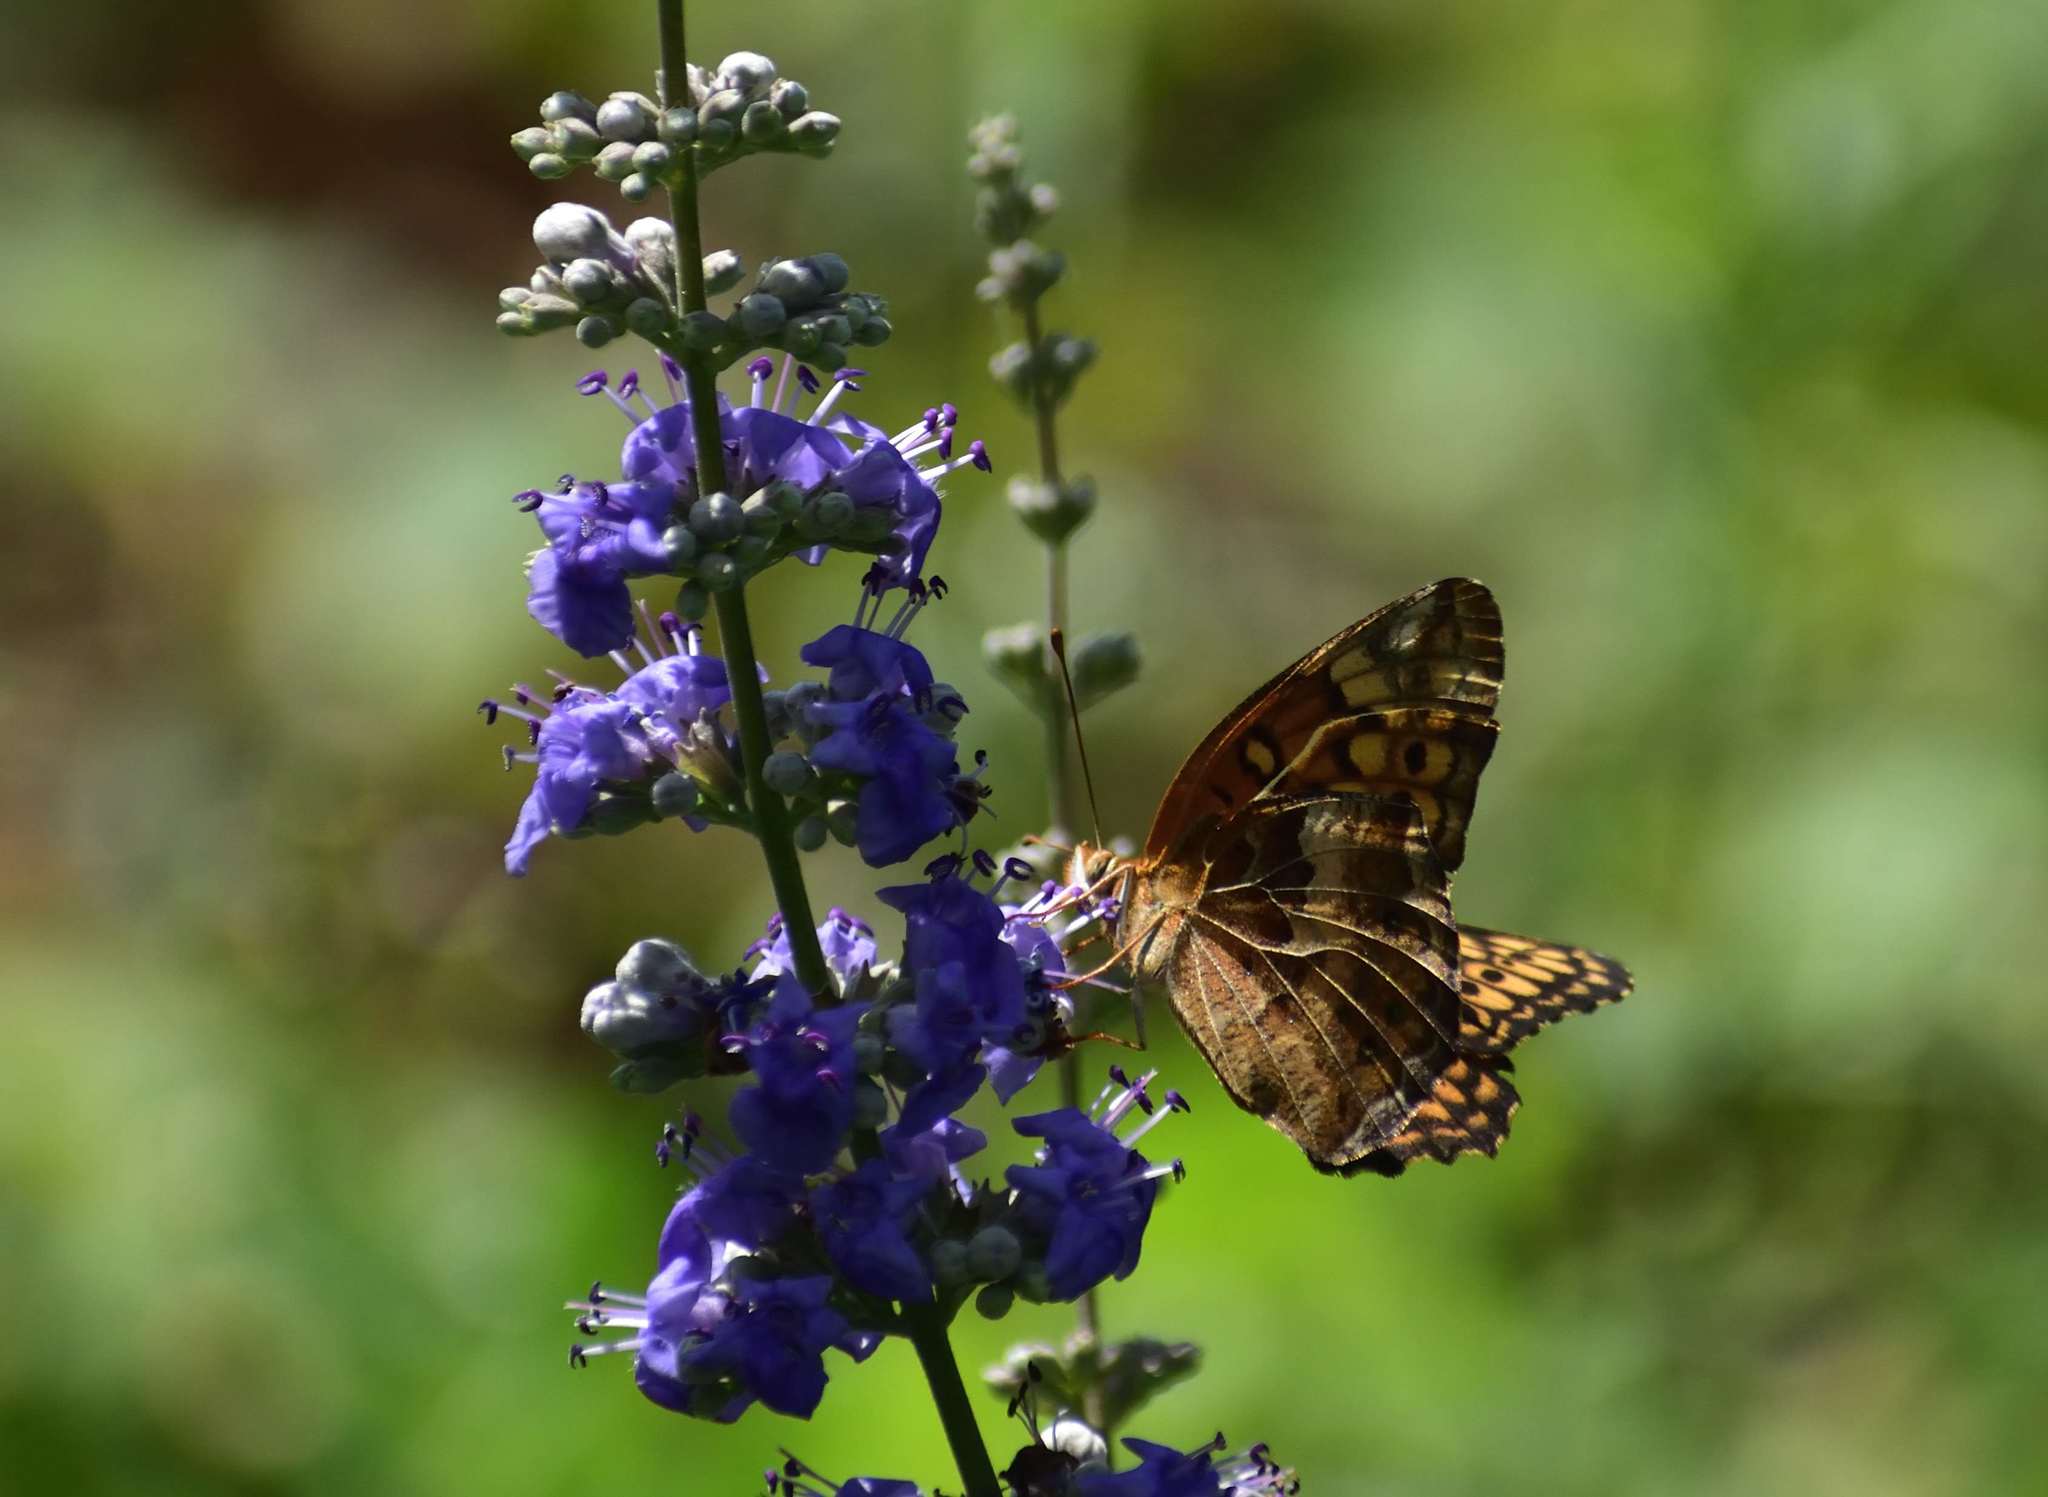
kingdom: Animalia
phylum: Arthropoda
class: Insecta
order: Lepidoptera
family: Nymphalidae
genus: Euptoieta
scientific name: Euptoieta claudia
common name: Variegated fritillary
